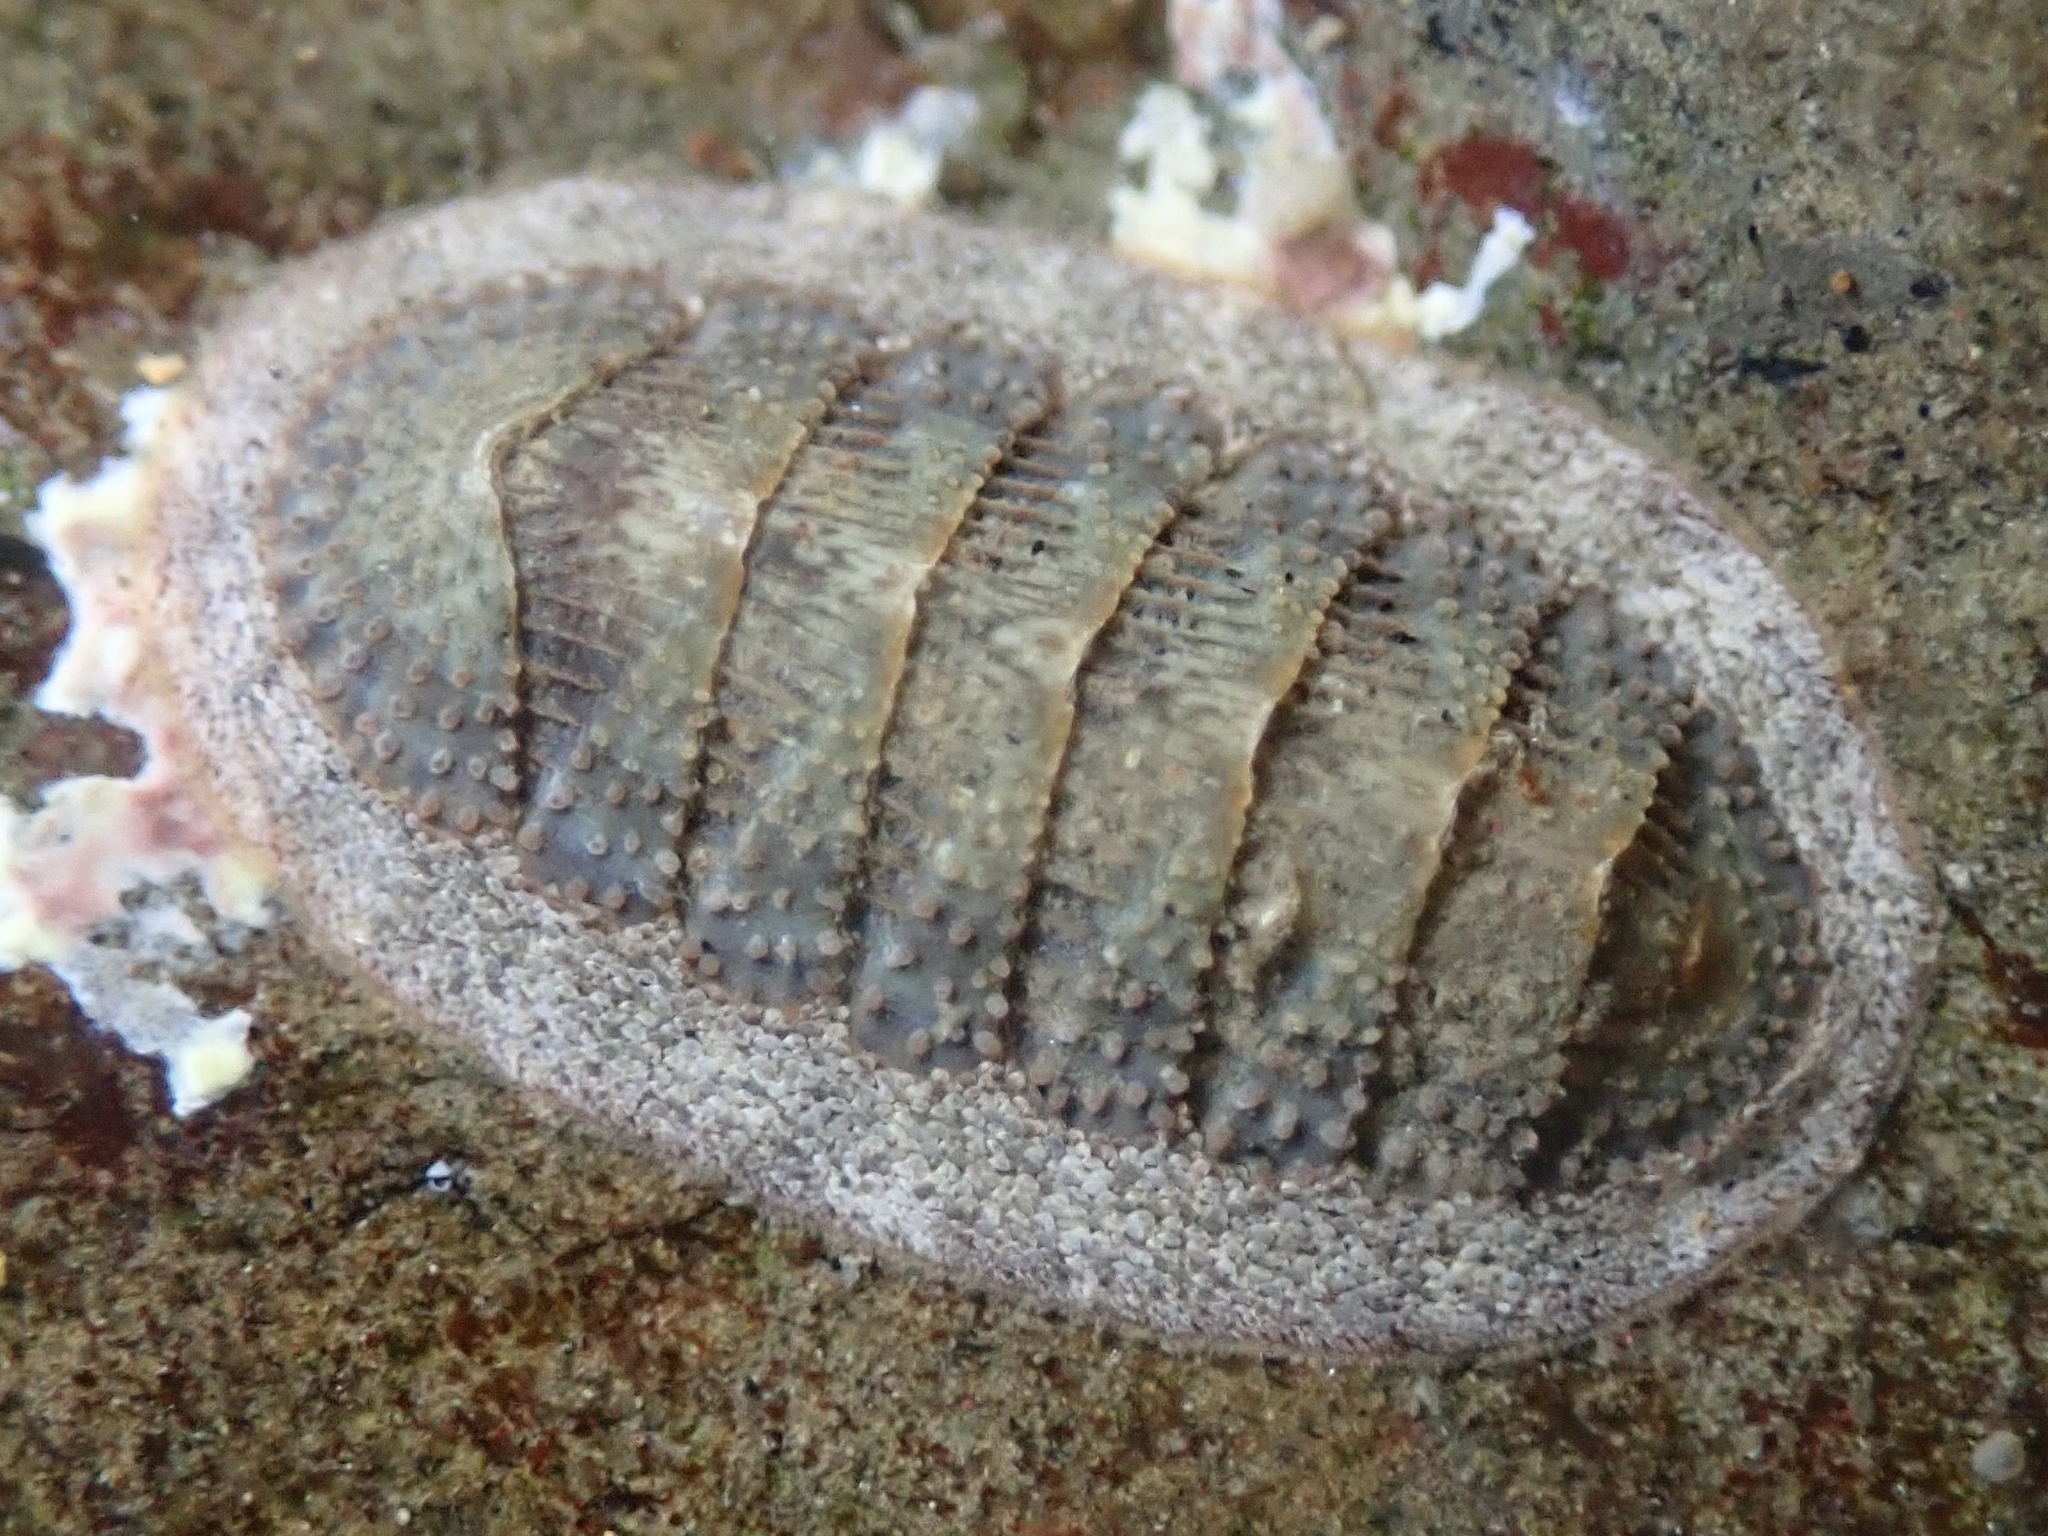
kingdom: Animalia
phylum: Mollusca
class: Polyplacophora
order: Chitonida
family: Ischnochitonidae
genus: Lepidozona
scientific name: Lepidozona cooperi
